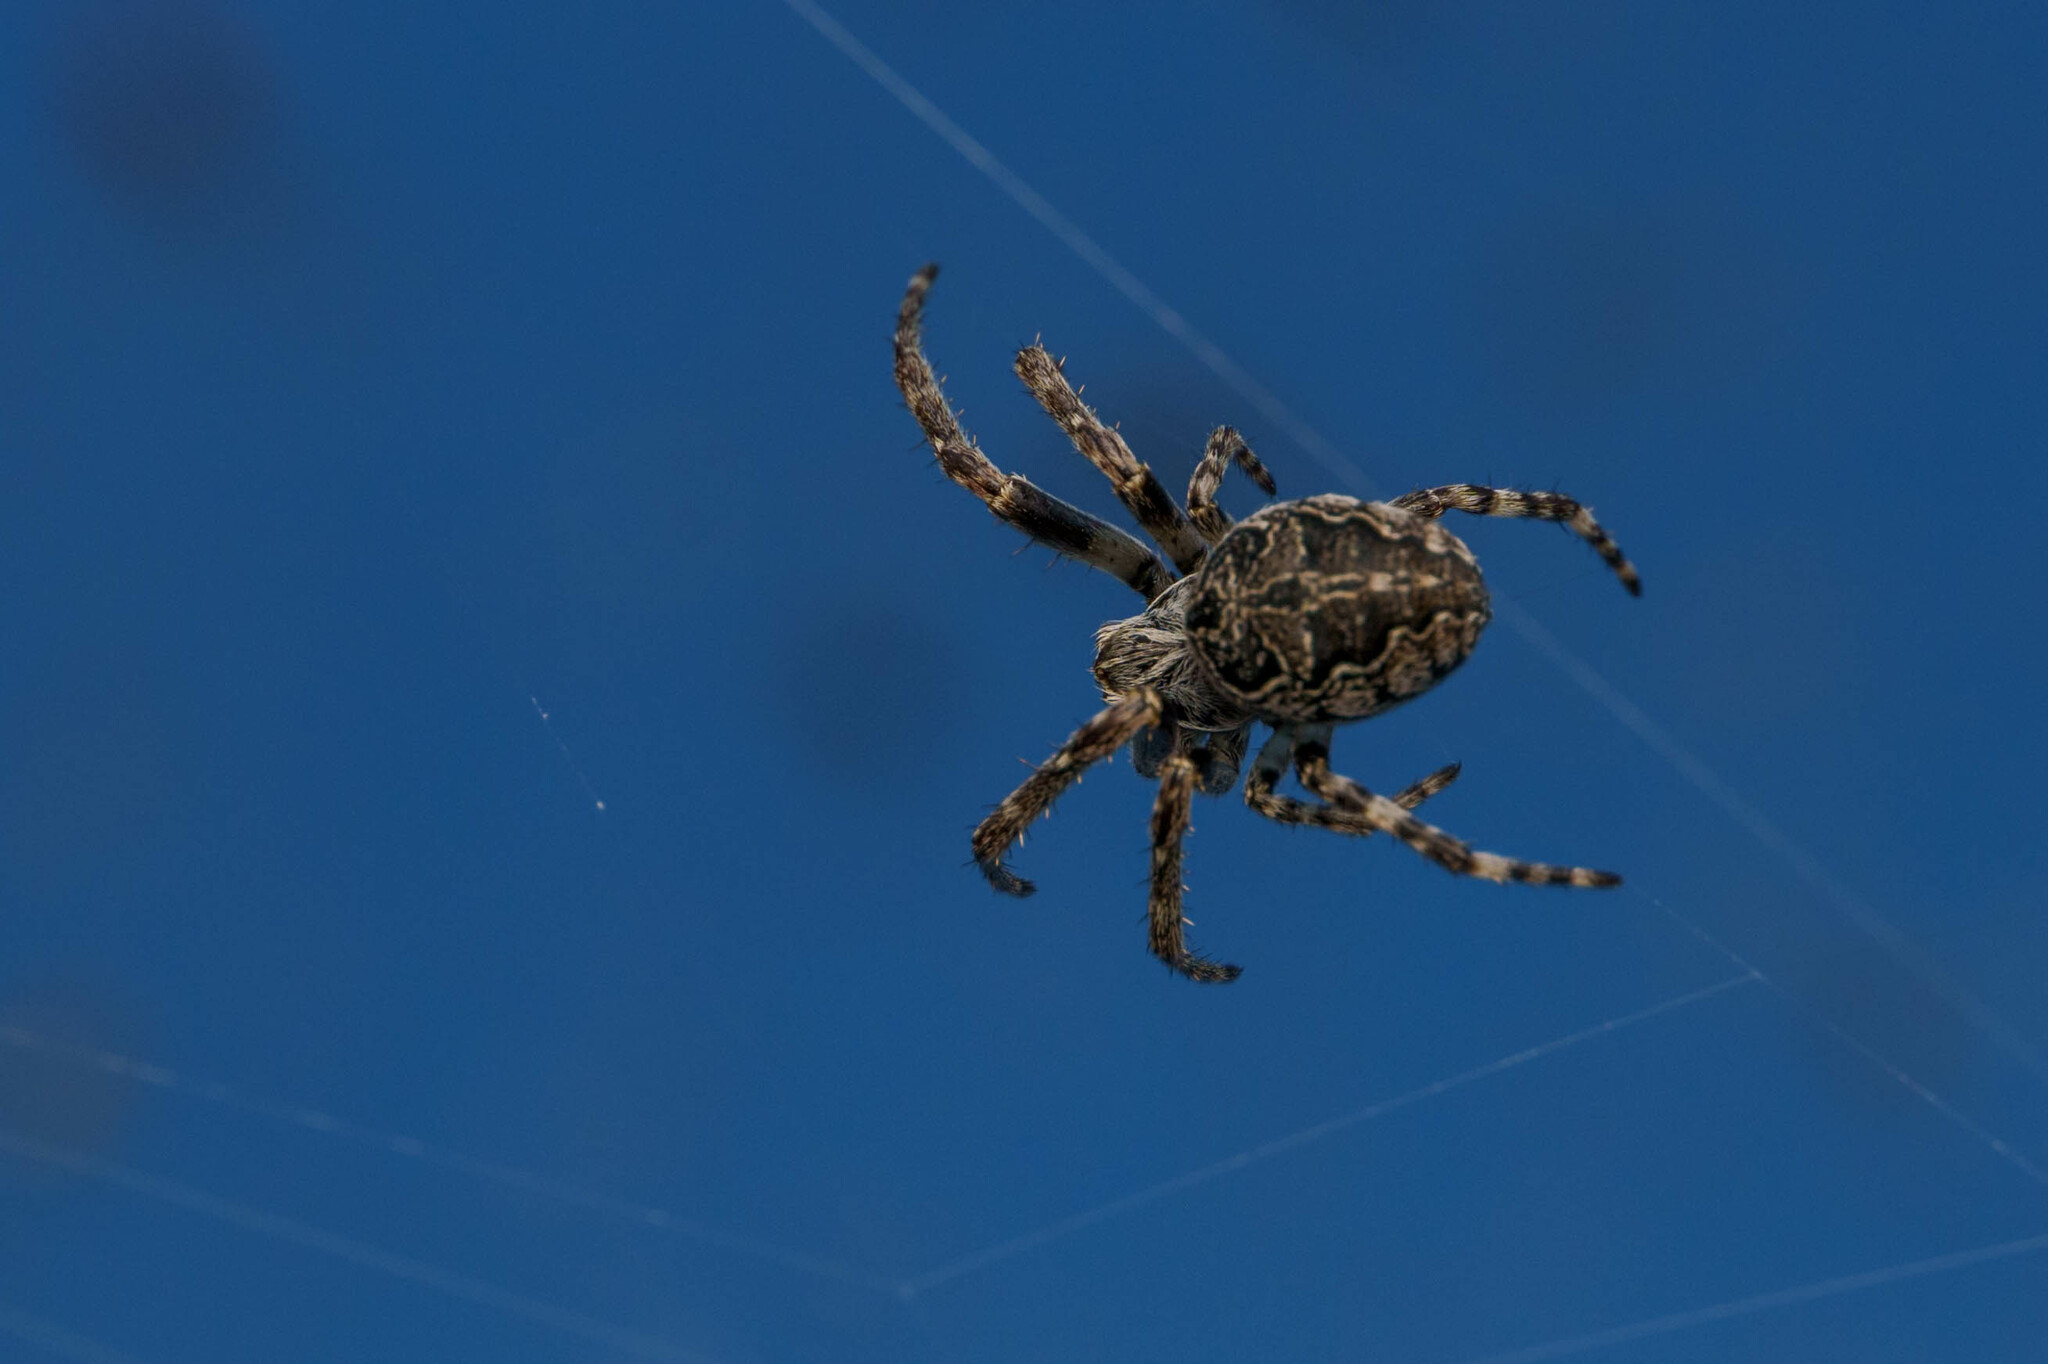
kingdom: Animalia
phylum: Arthropoda
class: Arachnida
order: Araneae
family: Araneidae
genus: Larinioides
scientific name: Larinioides sclopetarius
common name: Bridge orbweaver
